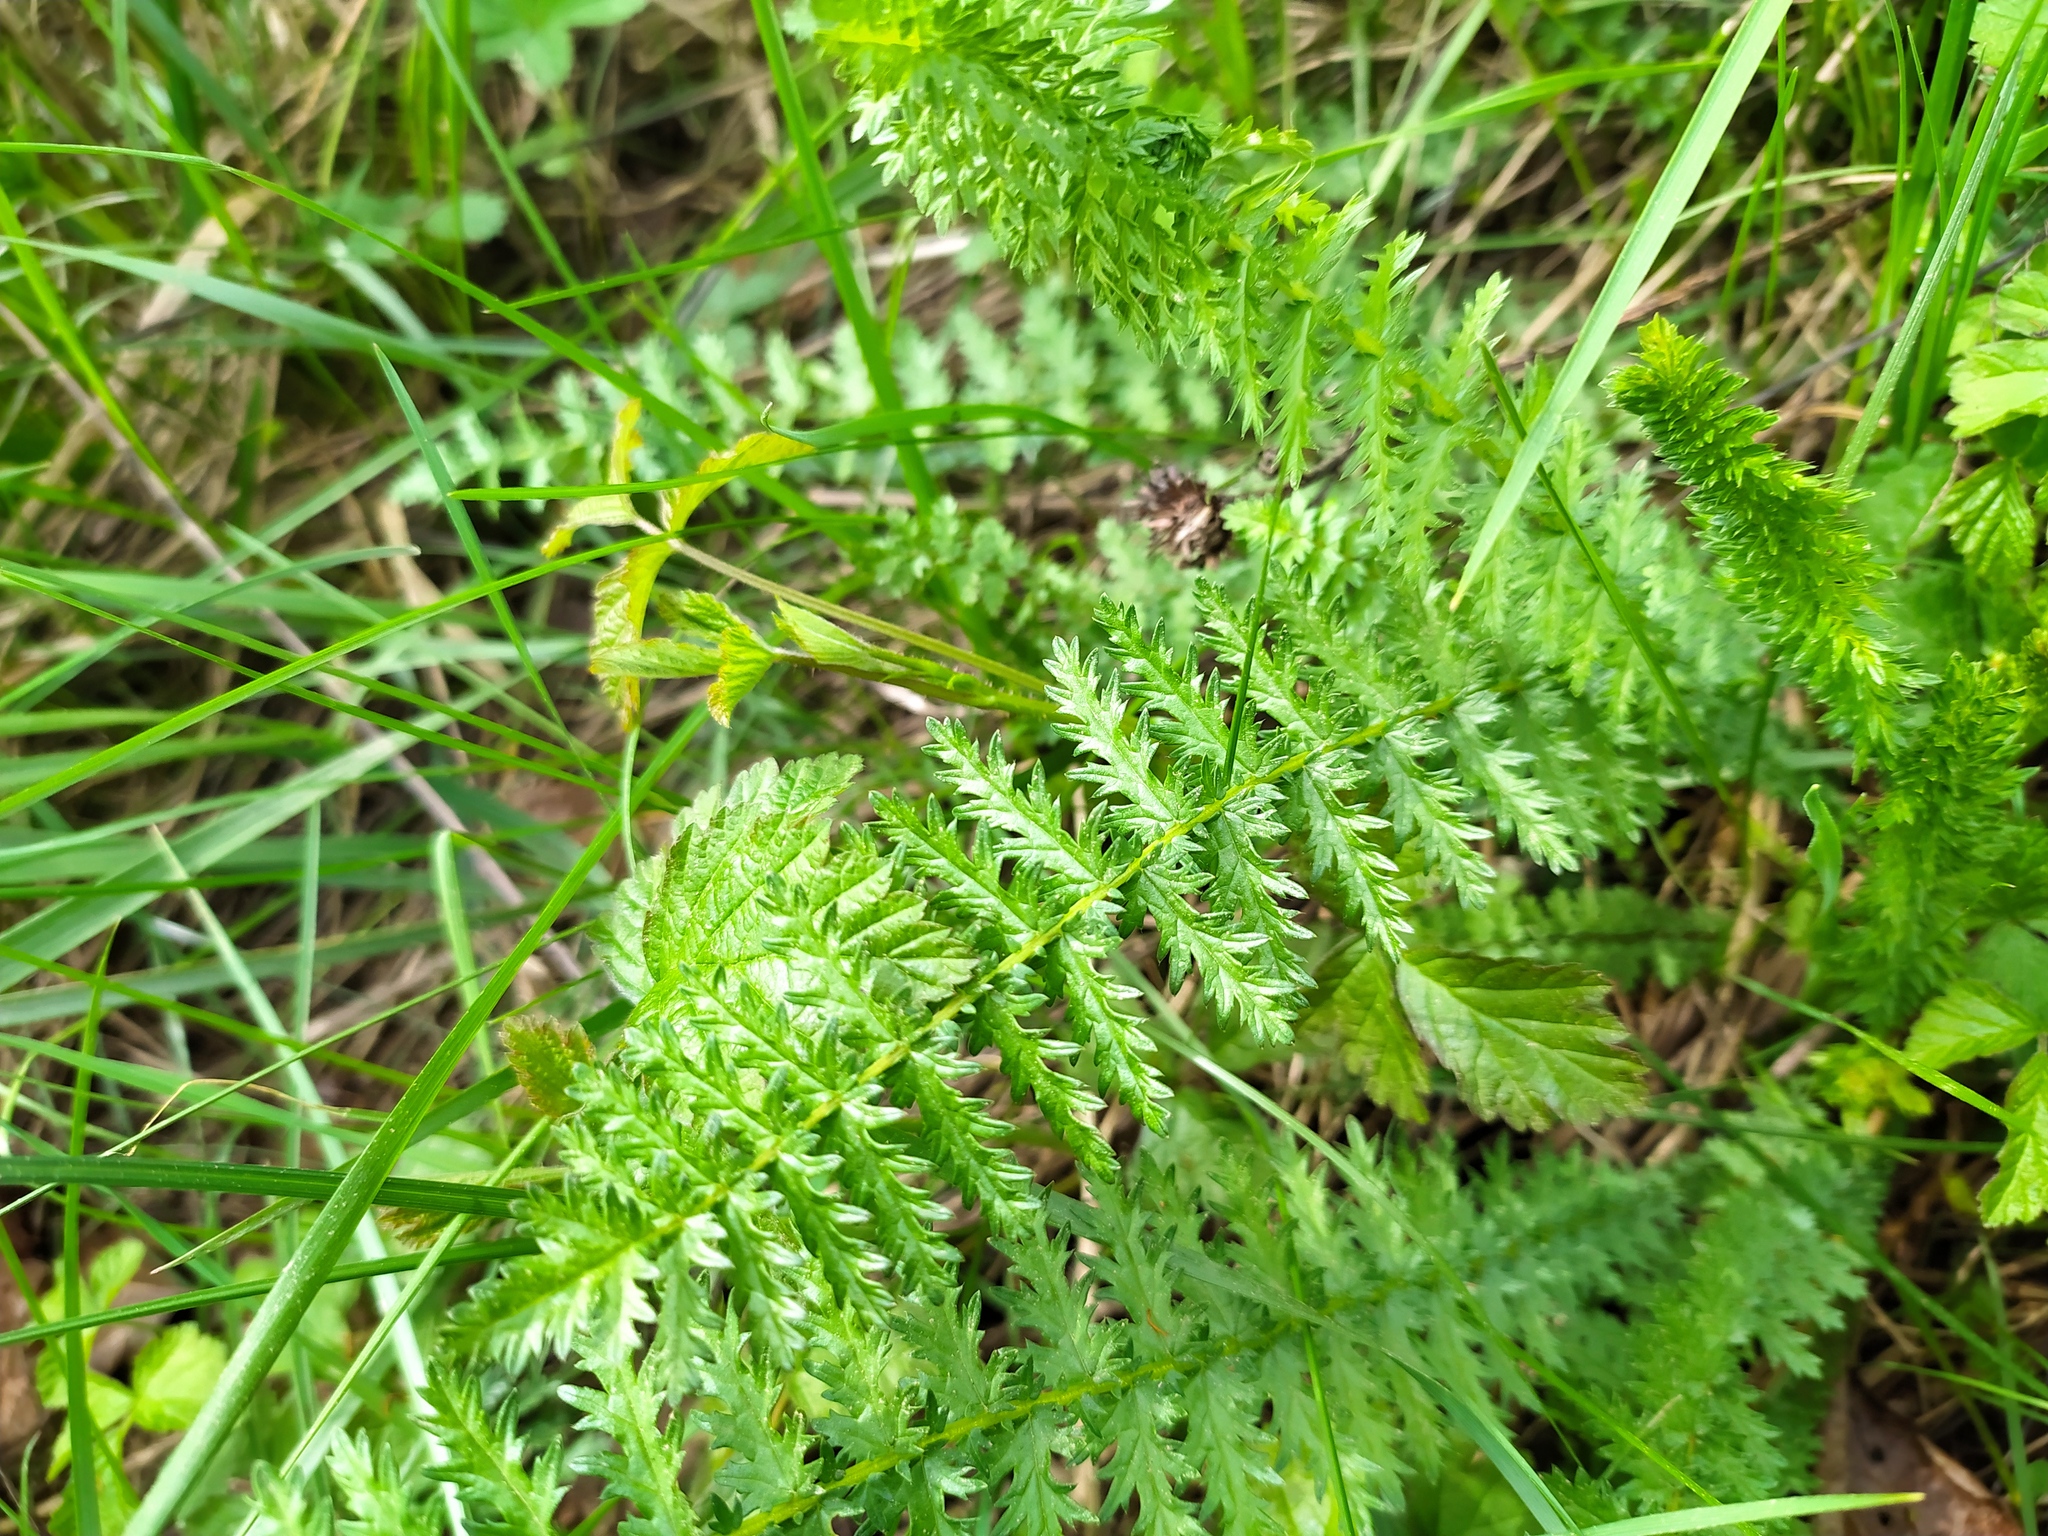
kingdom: Plantae
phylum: Tracheophyta
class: Magnoliopsida
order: Rosales
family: Rosaceae
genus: Filipendula
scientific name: Filipendula vulgaris
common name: Dropwort
